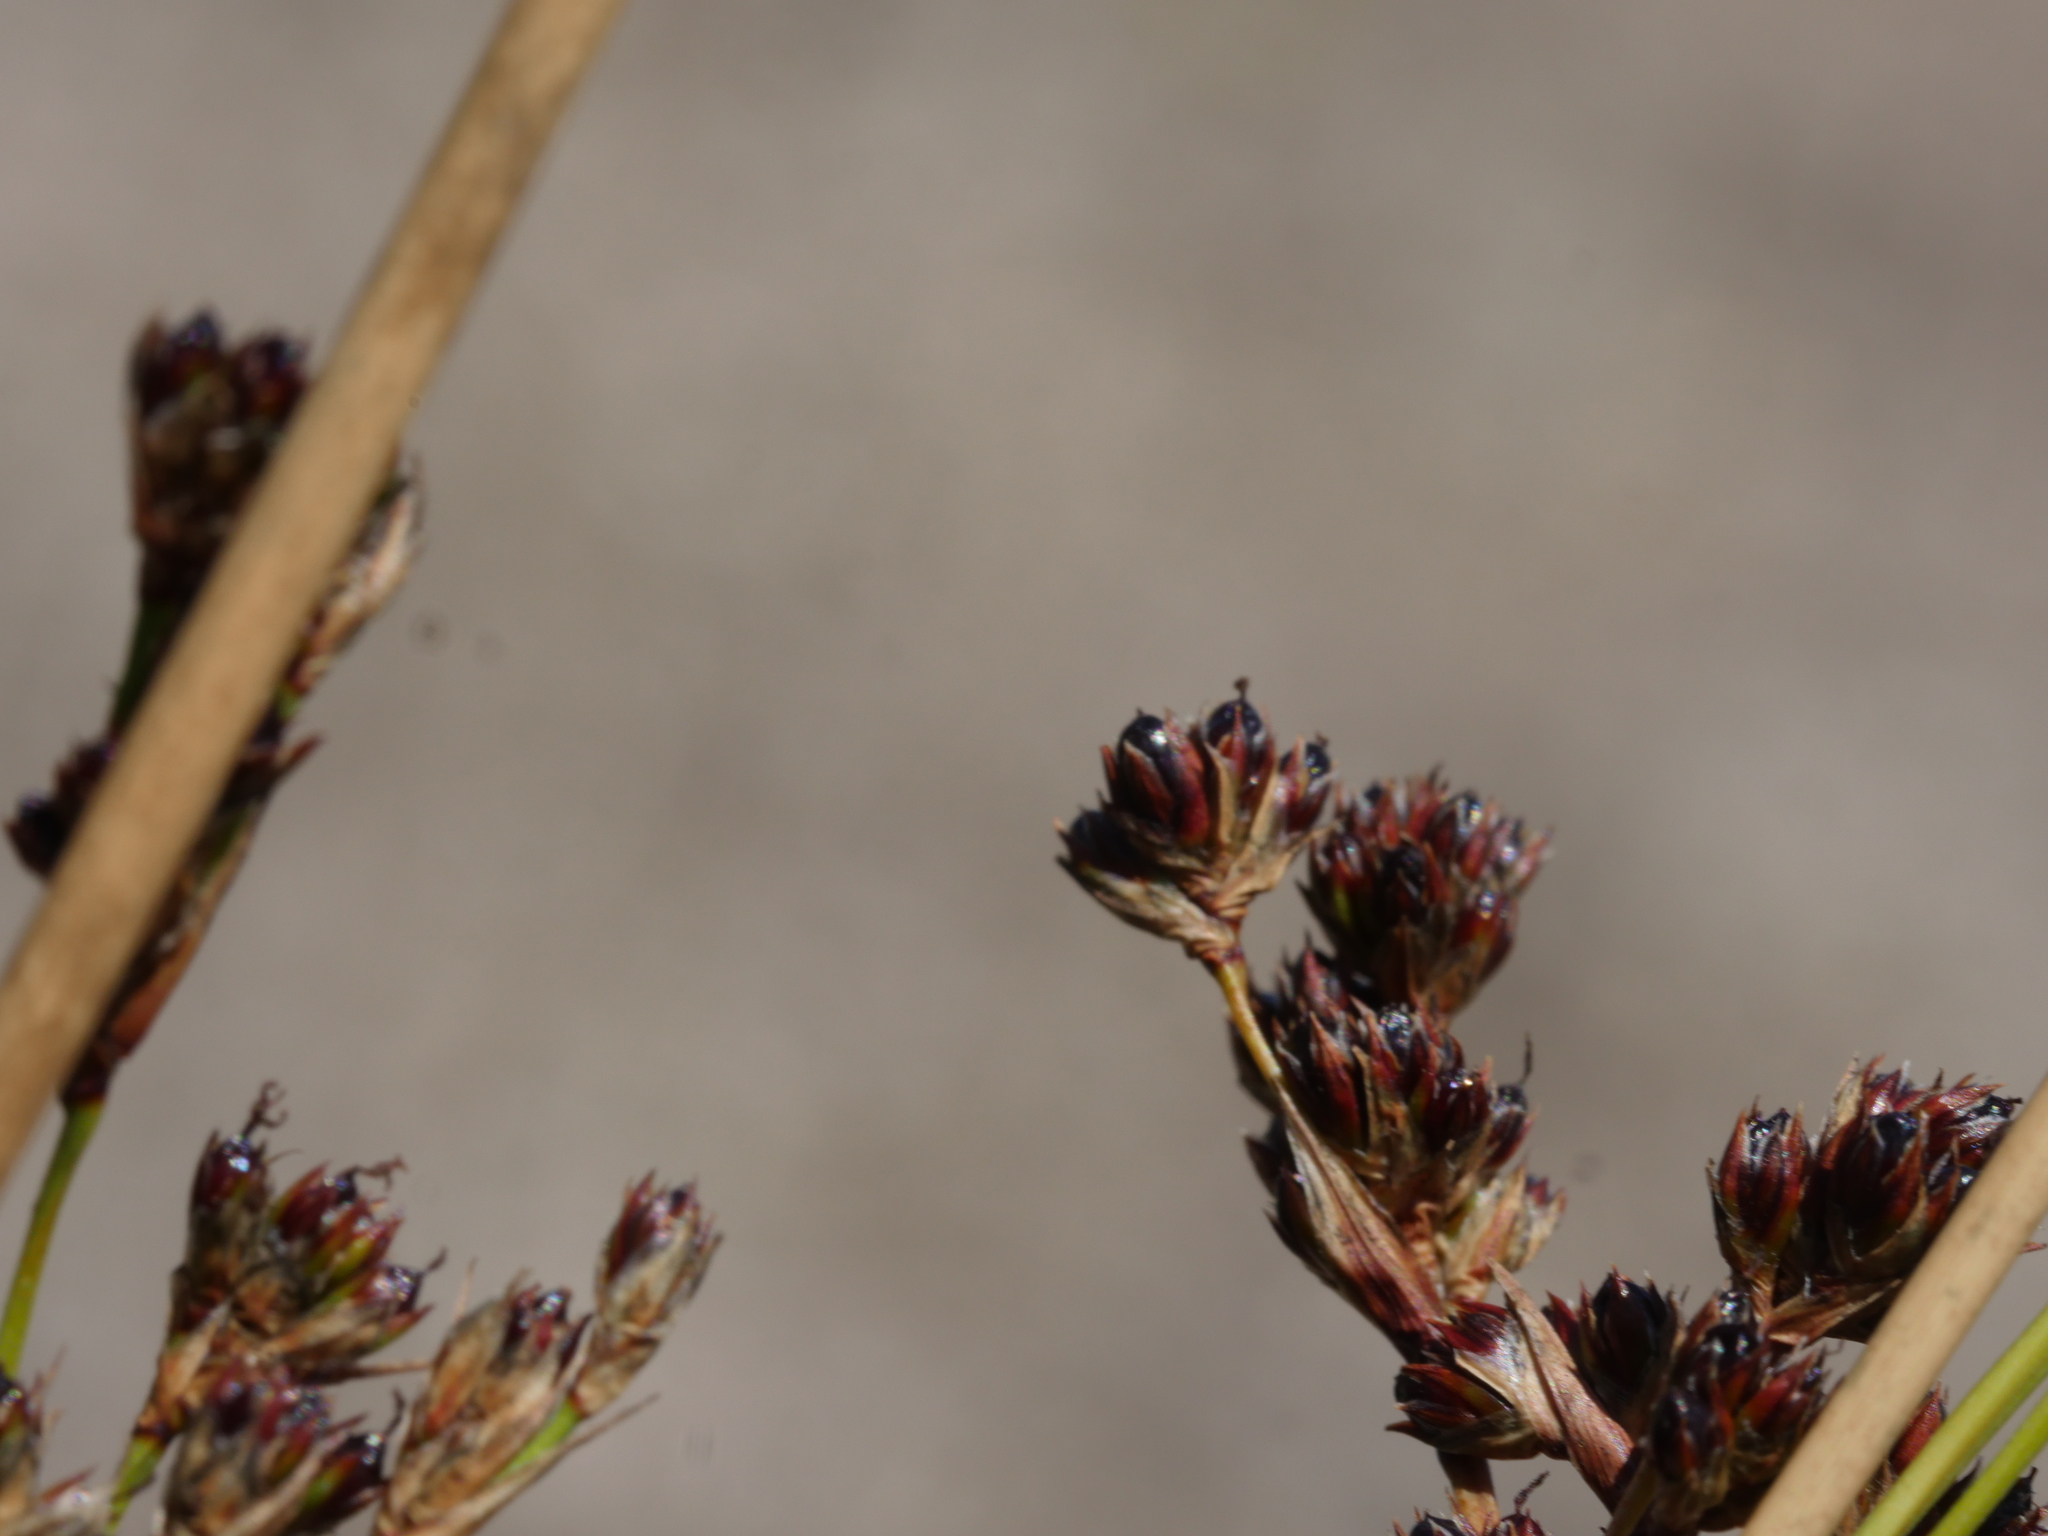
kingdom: Plantae
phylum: Tracheophyta
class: Liliopsida
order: Poales
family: Juncaceae
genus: Juncus
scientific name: Juncus kraussii
